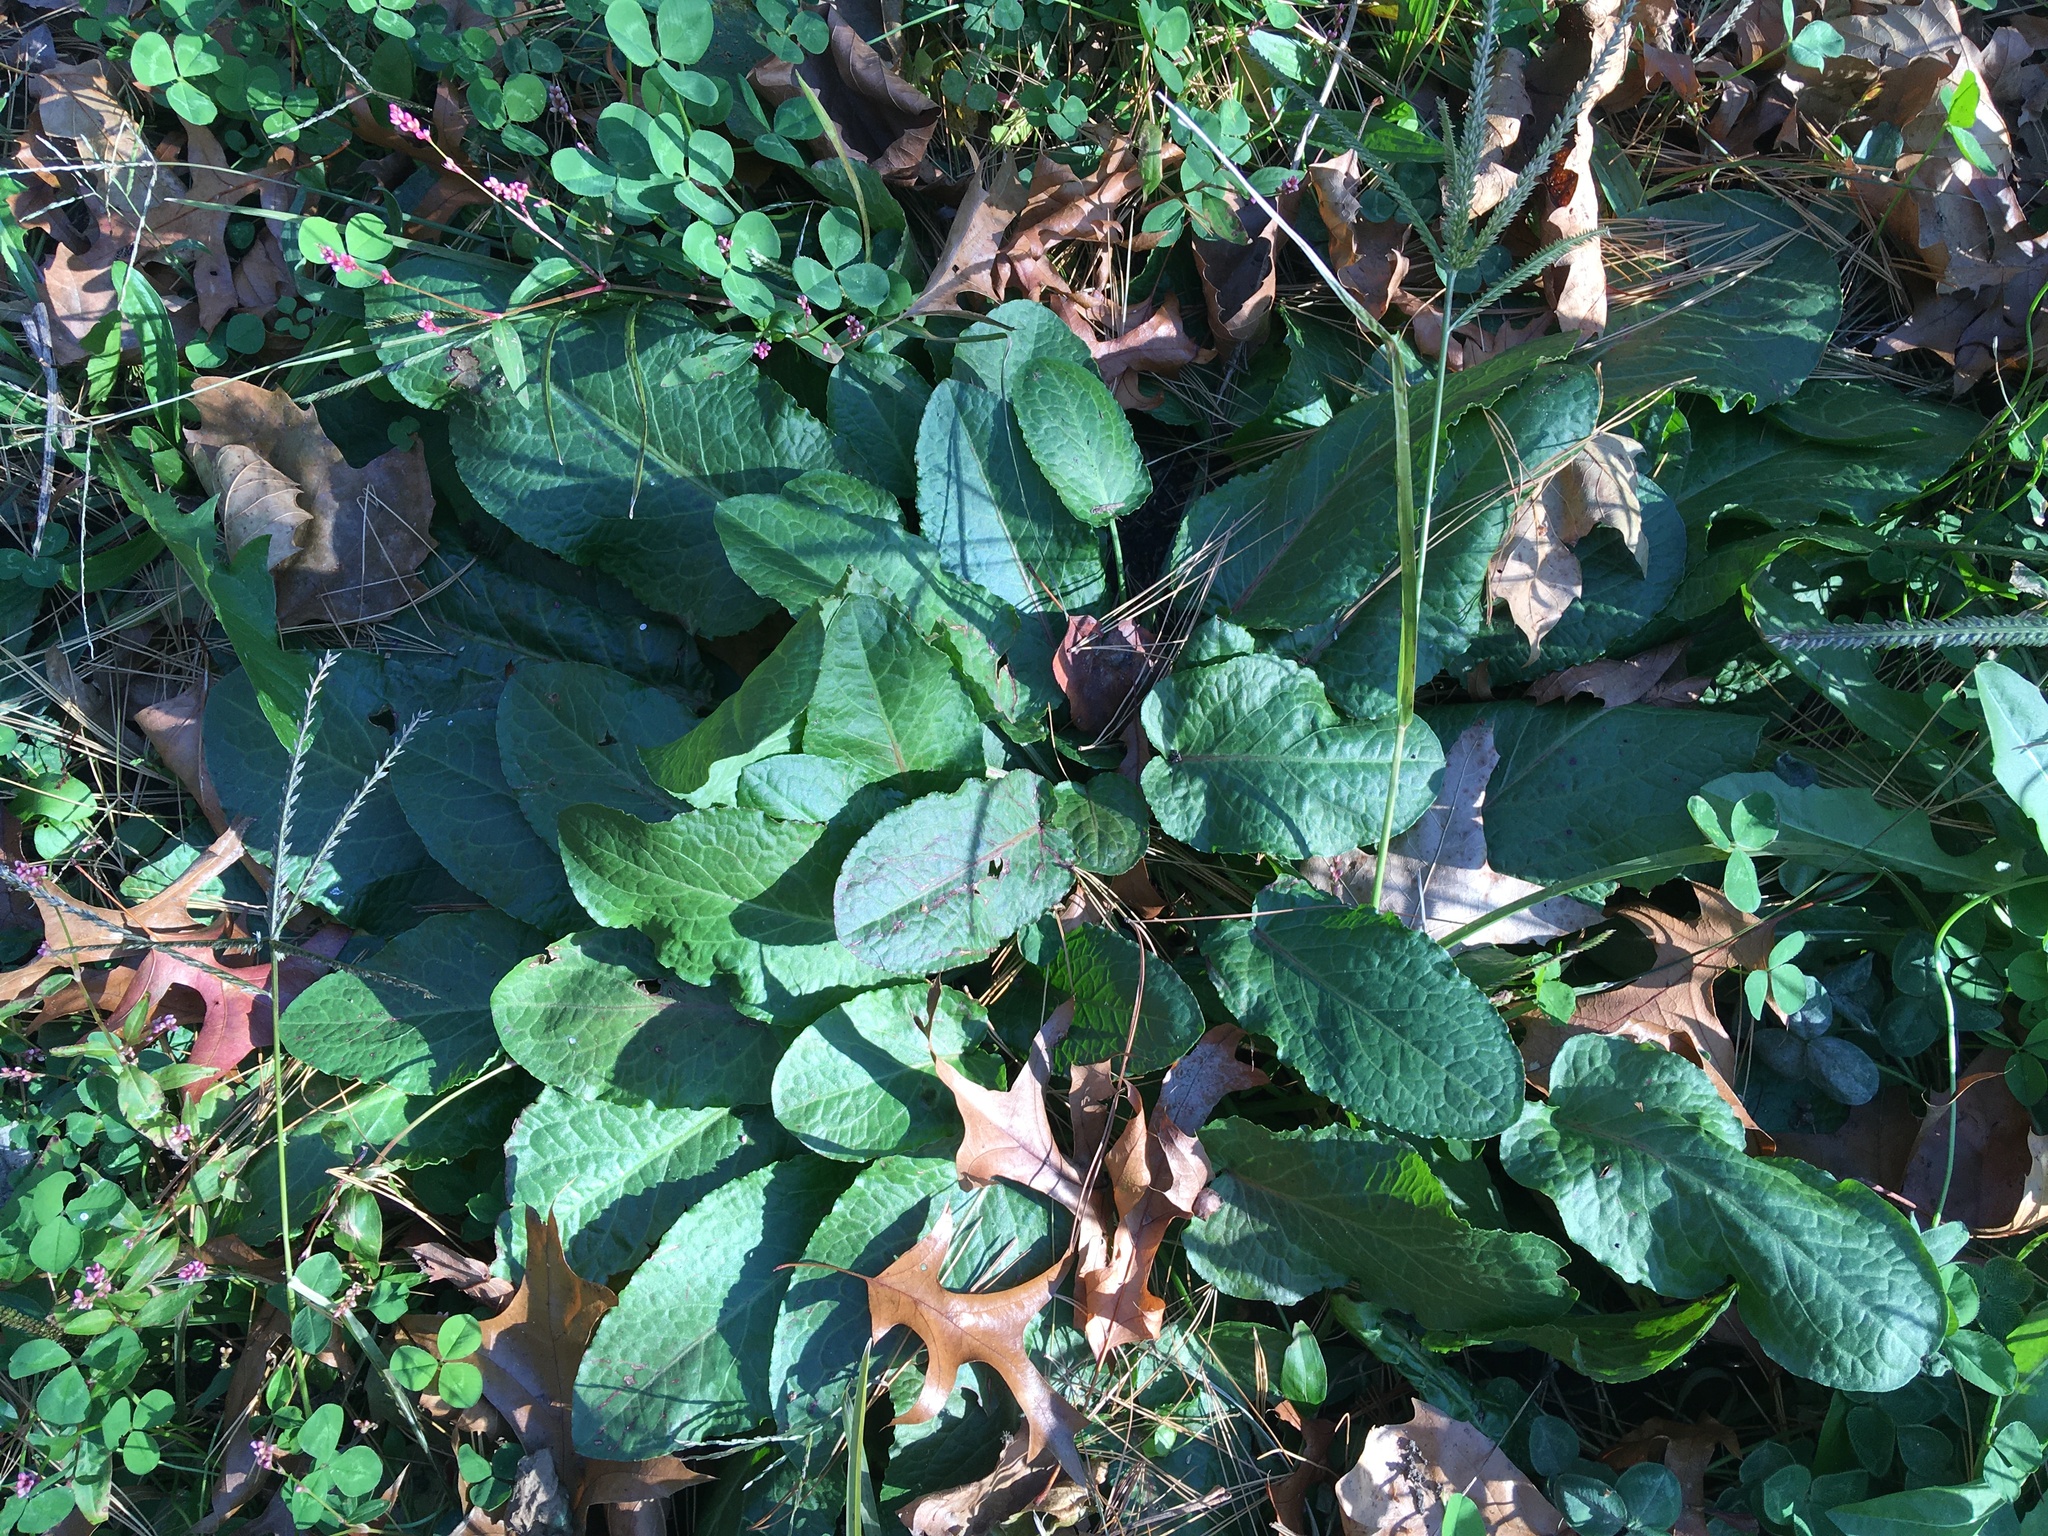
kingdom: Plantae
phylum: Tracheophyta
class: Magnoliopsida
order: Caryophyllales
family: Polygonaceae
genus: Rumex
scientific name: Rumex obtusifolius
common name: Bitter dock
